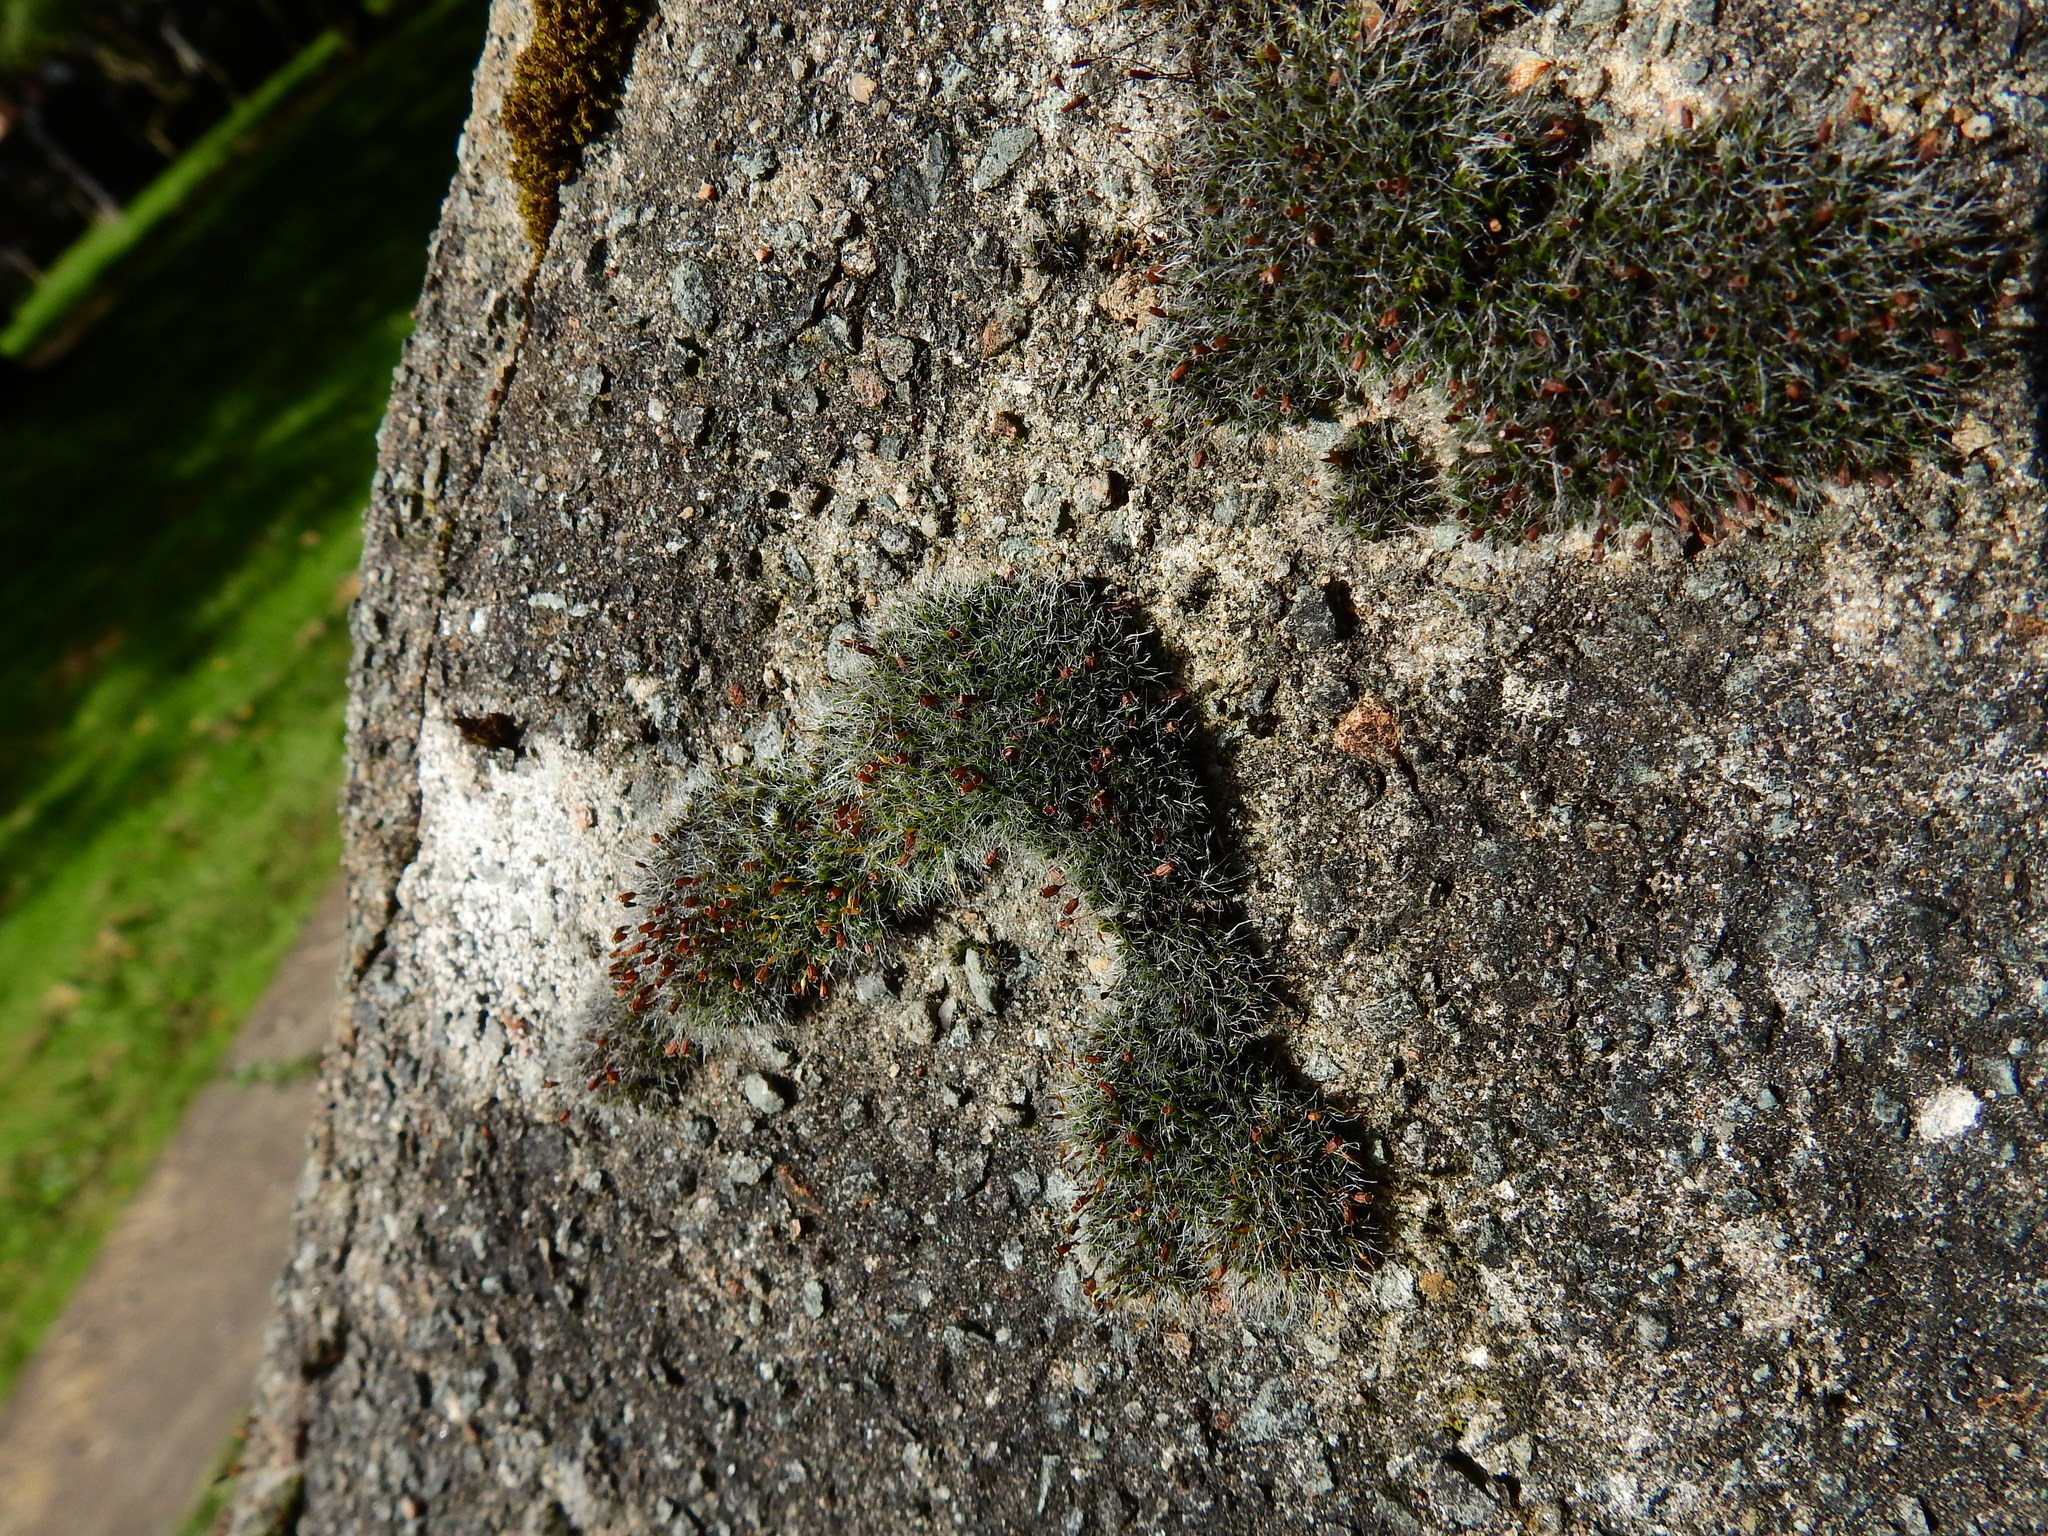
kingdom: Plantae
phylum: Bryophyta
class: Bryopsida
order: Grimmiales
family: Grimmiaceae
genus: Grimmia
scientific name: Grimmia pulvinata
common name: Grey-cushioned grimmia
